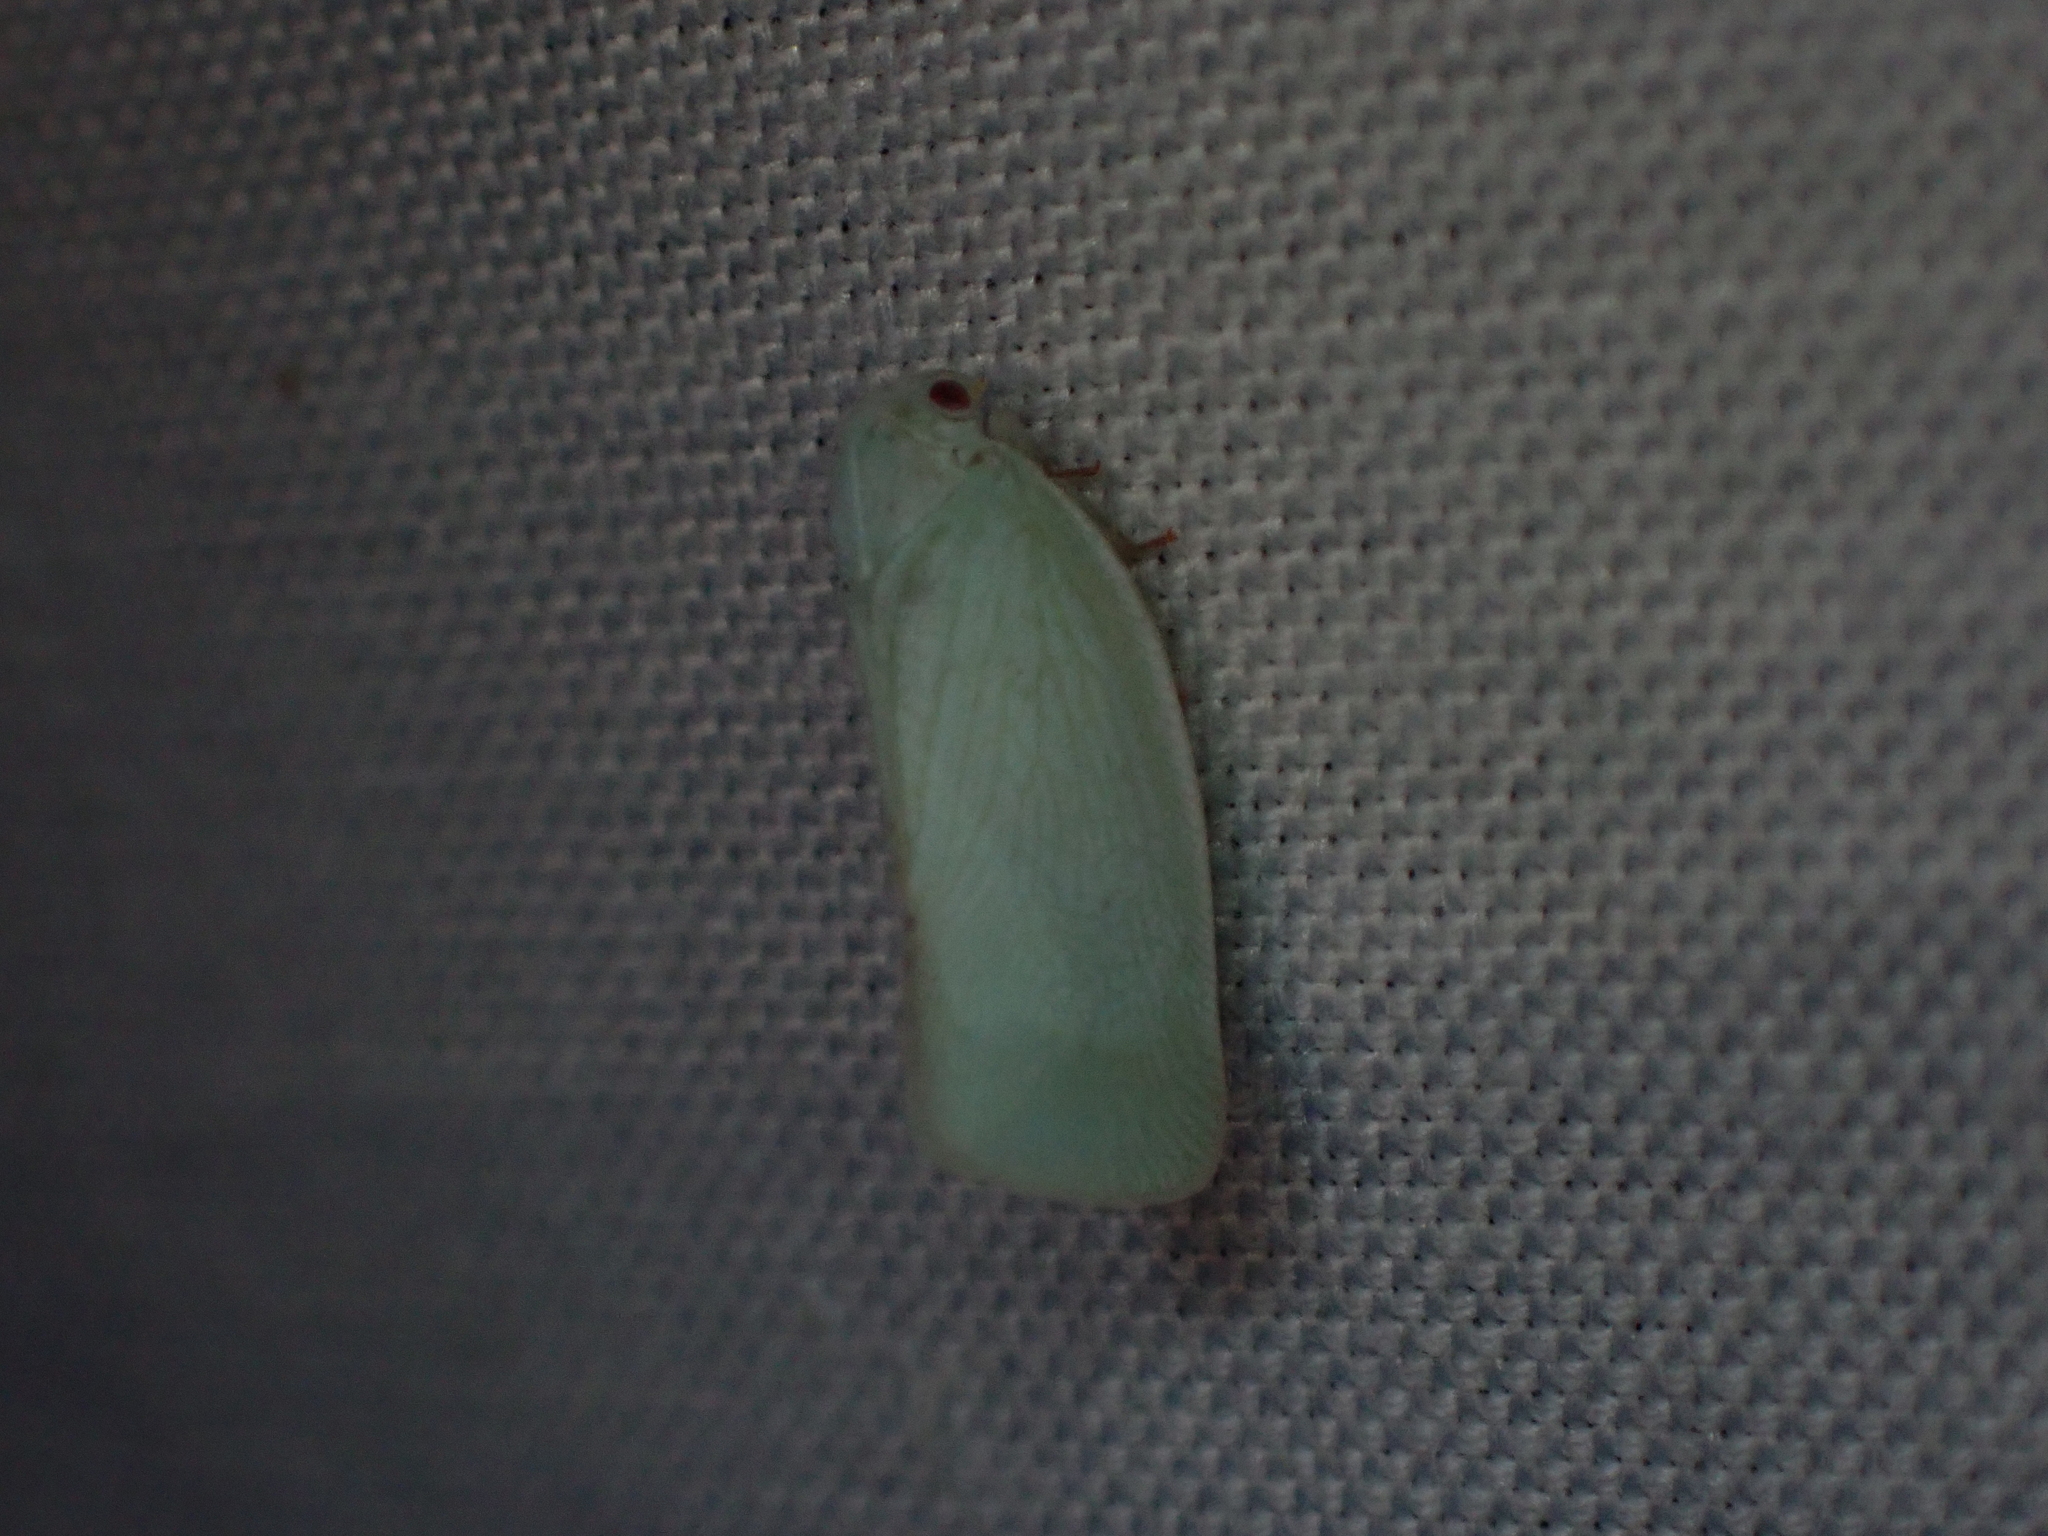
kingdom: Animalia
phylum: Arthropoda
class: Insecta
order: Hemiptera
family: Flatidae
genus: Flatormenis
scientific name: Flatormenis proxima
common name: Northern flatid planthopper
